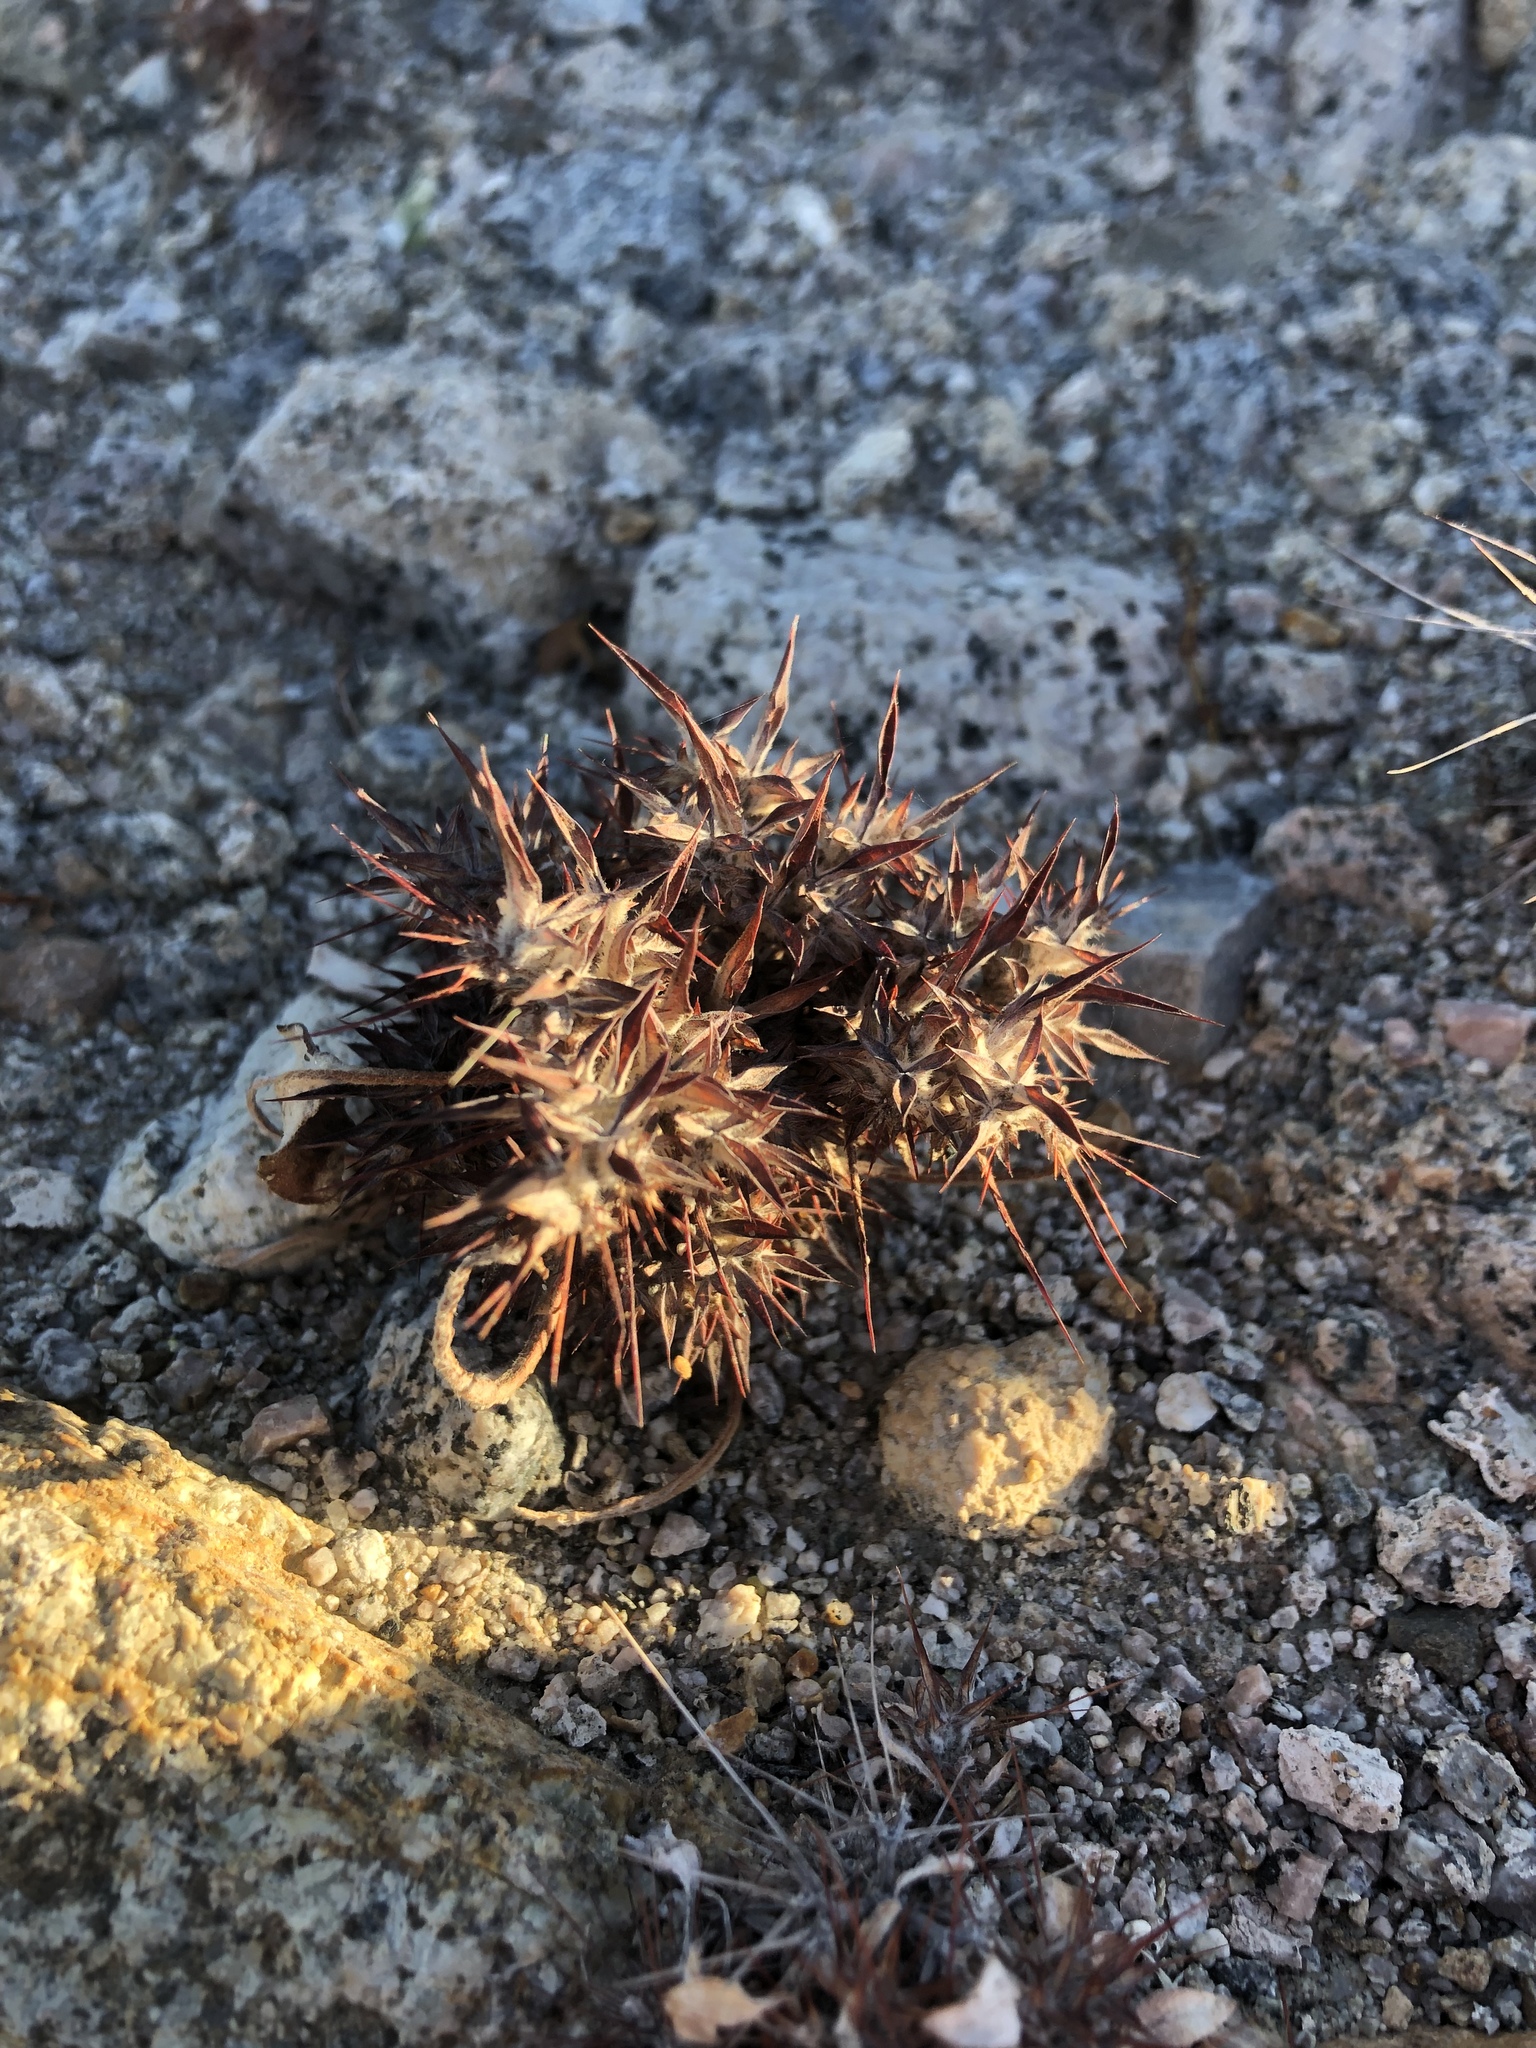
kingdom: Plantae
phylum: Tracheophyta
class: Magnoliopsida
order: Caryophyllales
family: Polygonaceae
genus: Chorizanthe
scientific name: Chorizanthe rigida
